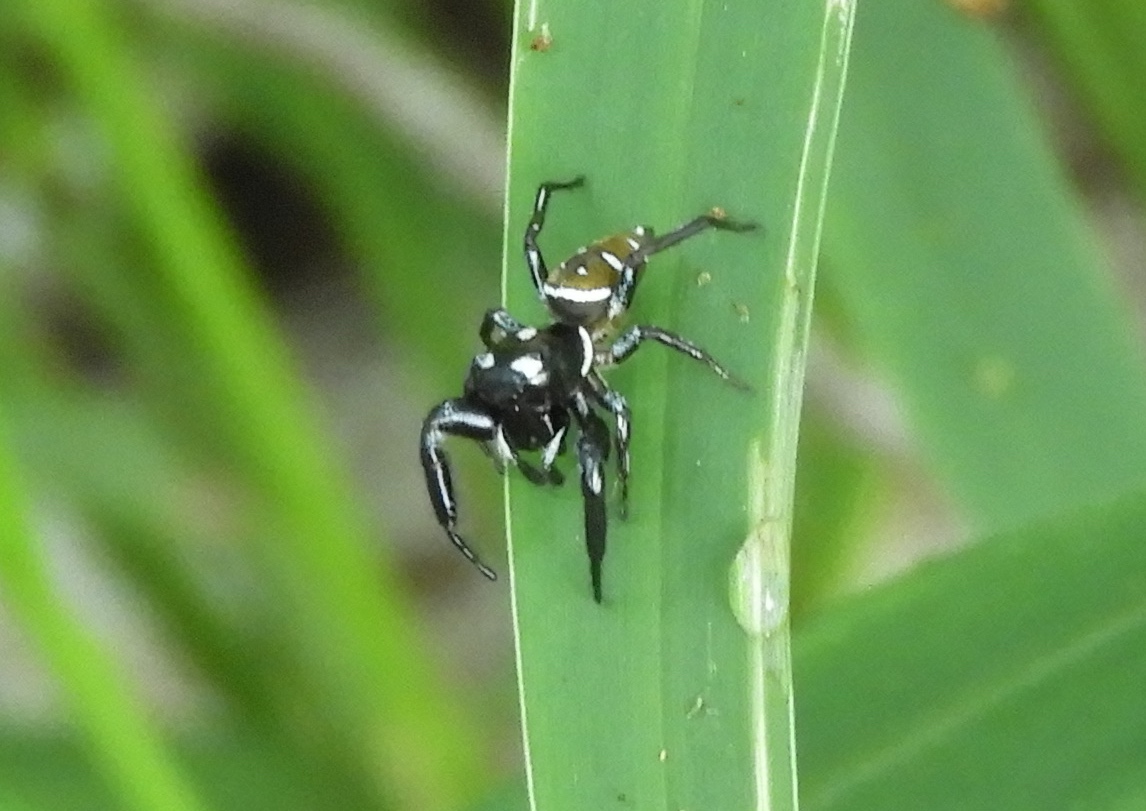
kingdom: Animalia
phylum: Arthropoda
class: Arachnida
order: Araneae
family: Salticidae
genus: Sassacus
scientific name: Sassacus
